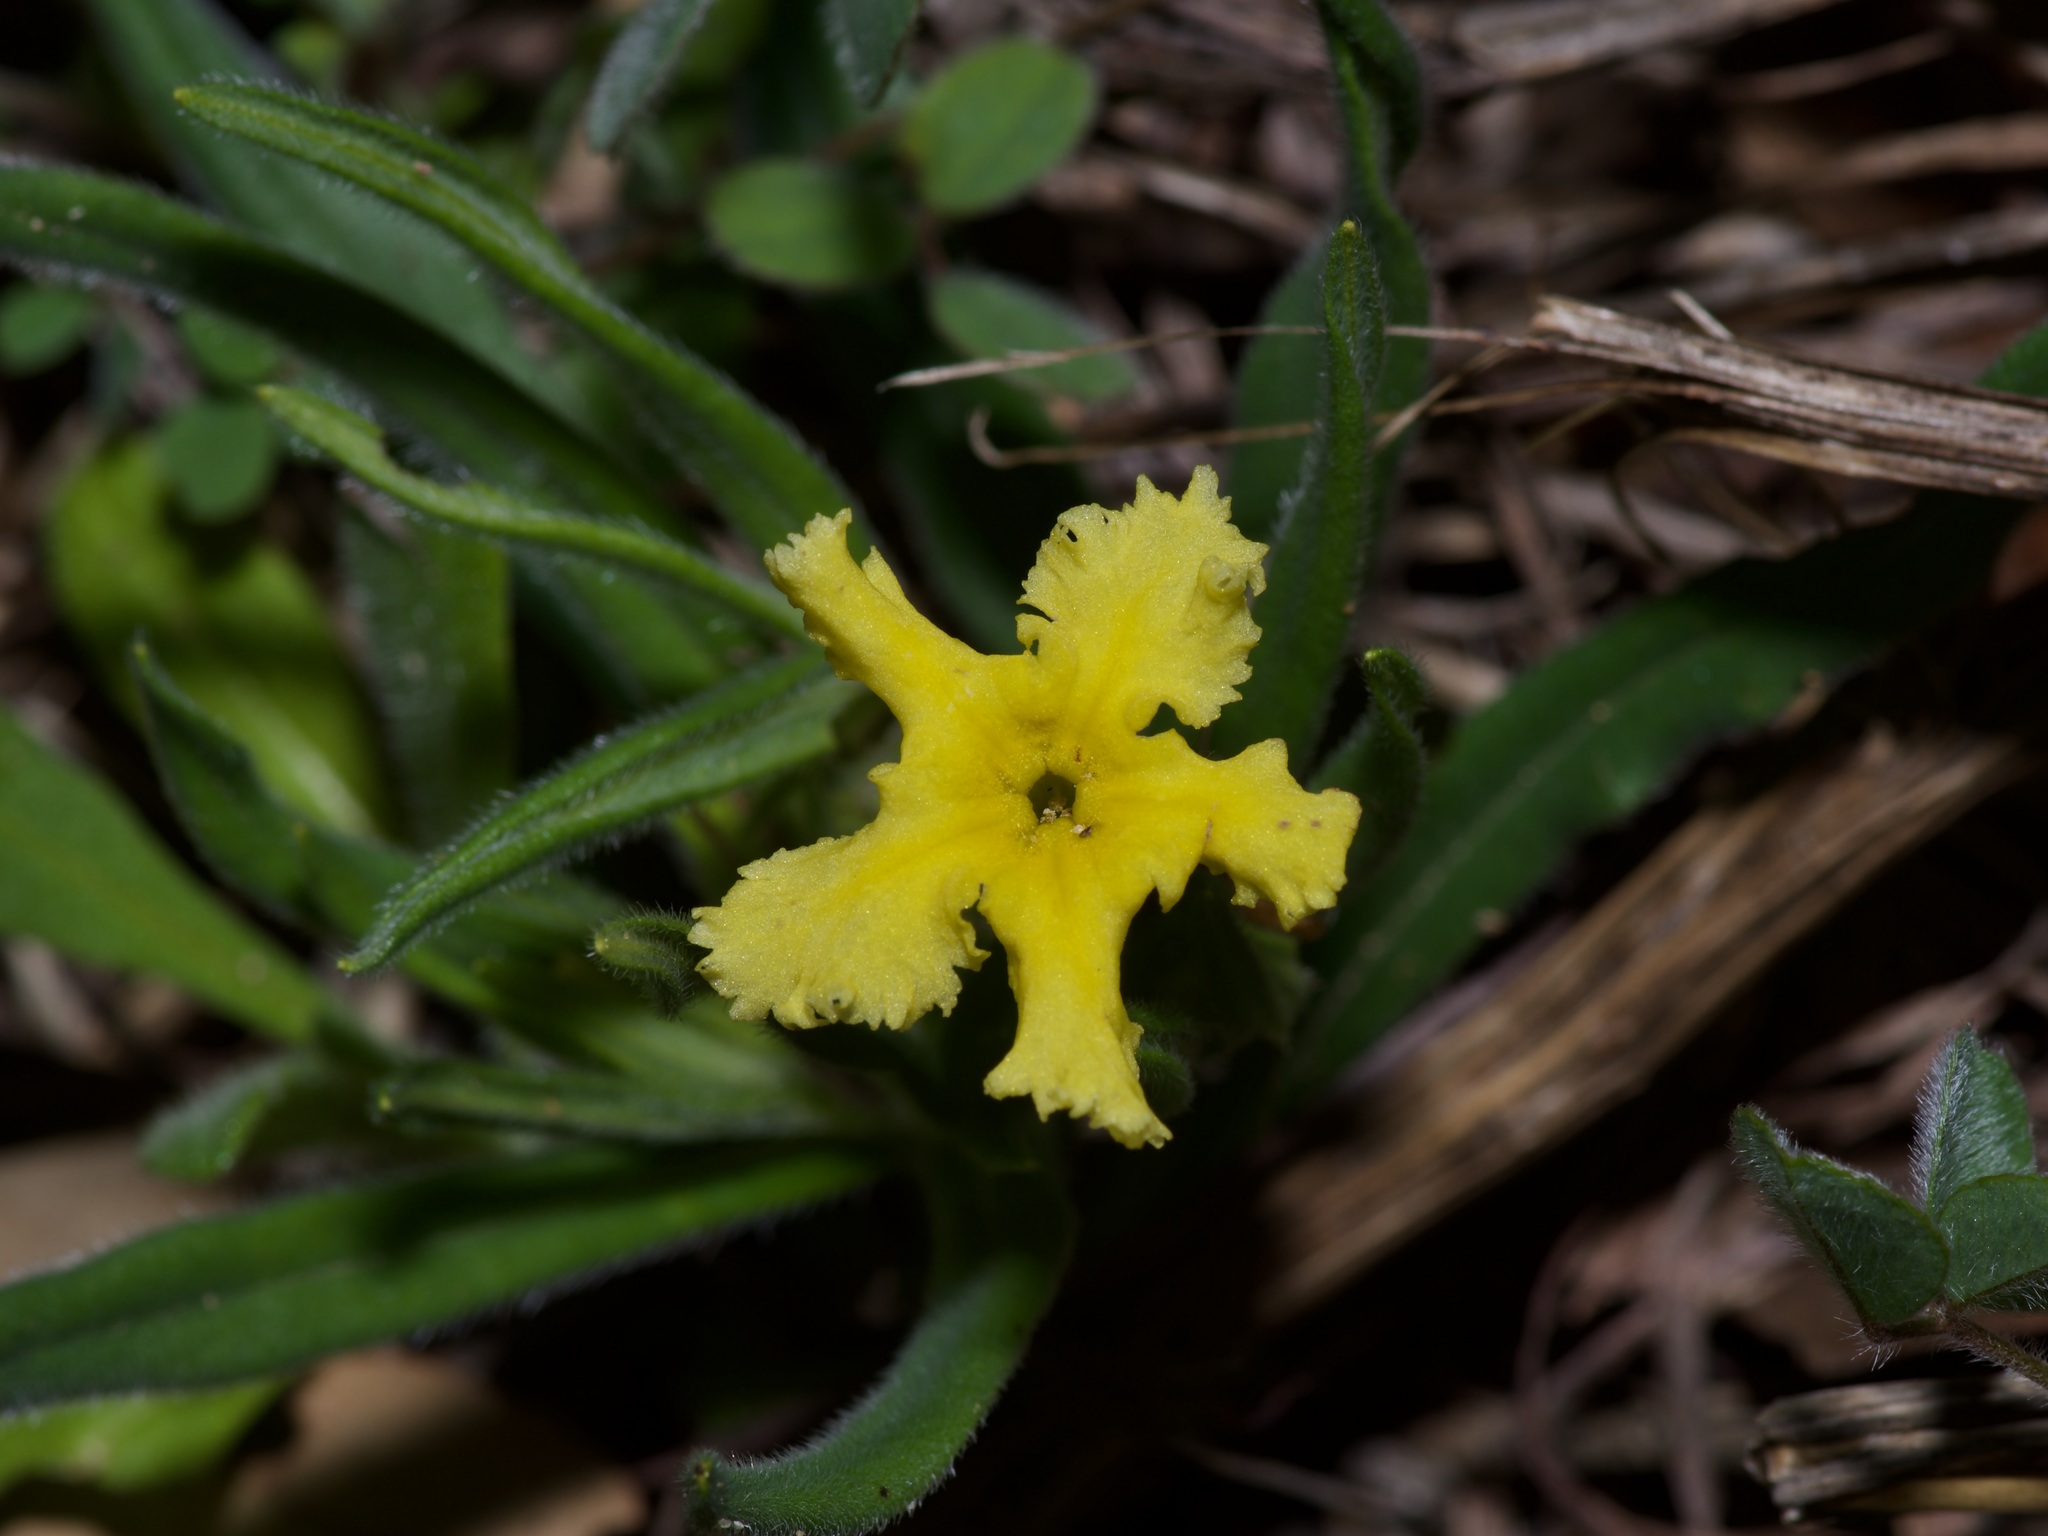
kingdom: Plantae
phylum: Tracheophyta
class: Magnoliopsida
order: Boraginales
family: Boraginaceae
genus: Lithospermum
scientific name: Lithospermum incisum
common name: Fringed gromwell
